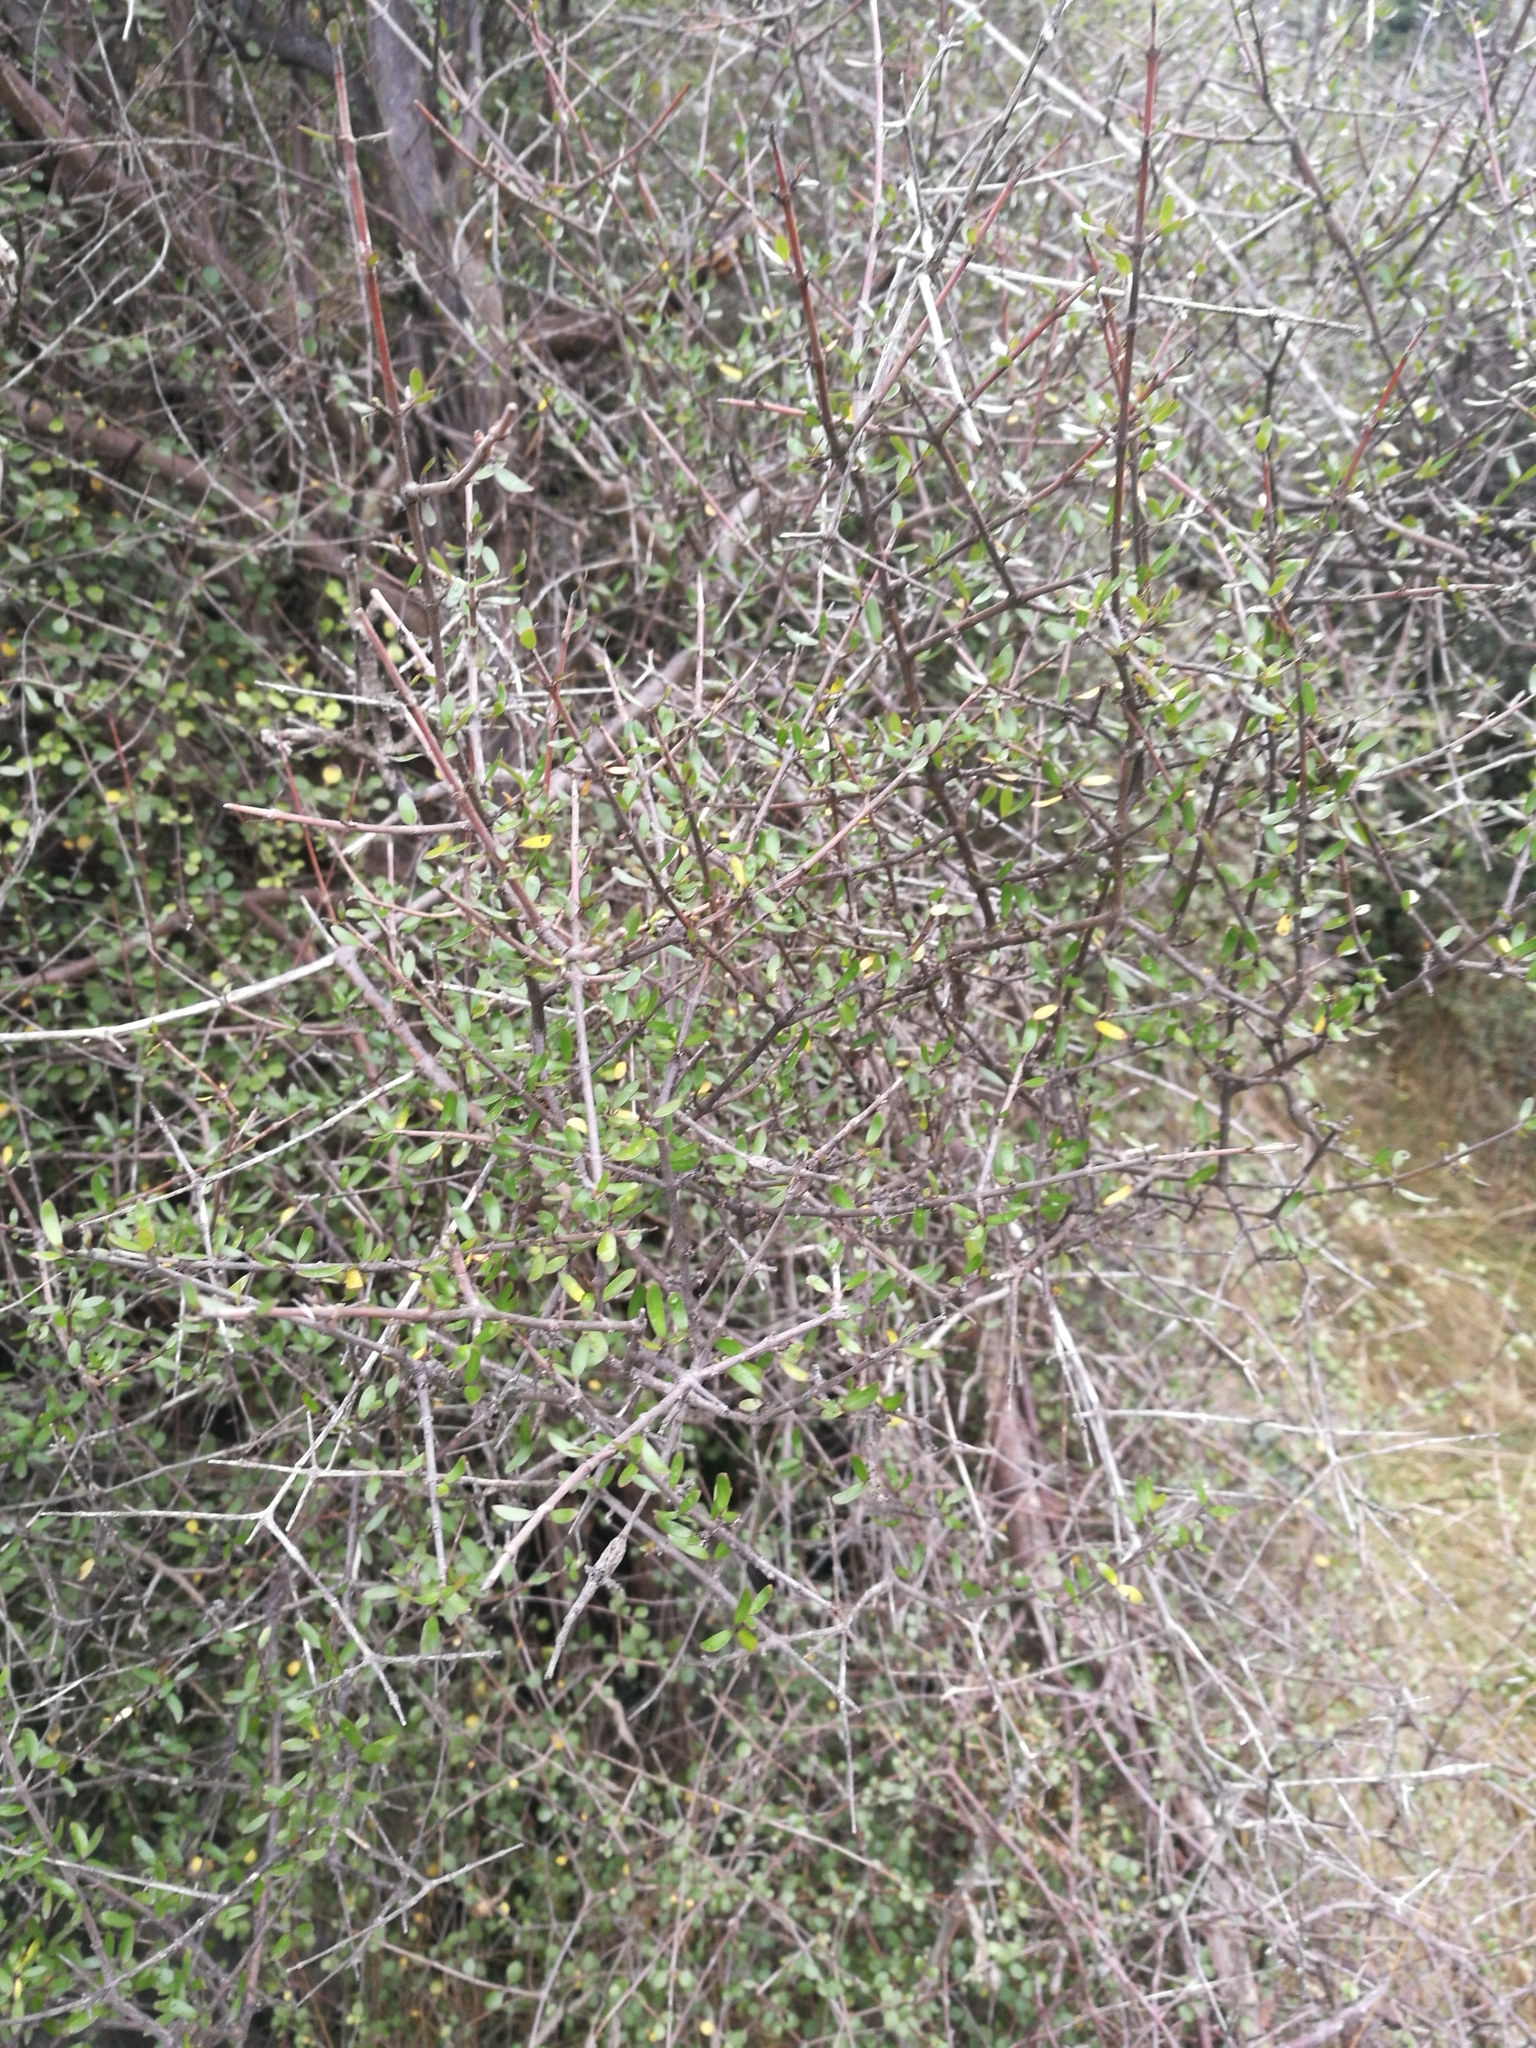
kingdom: Plantae
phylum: Tracheophyta
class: Magnoliopsida
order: Gentianales
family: Rubiaceae
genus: Coprosma
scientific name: Coprosma propinqua
